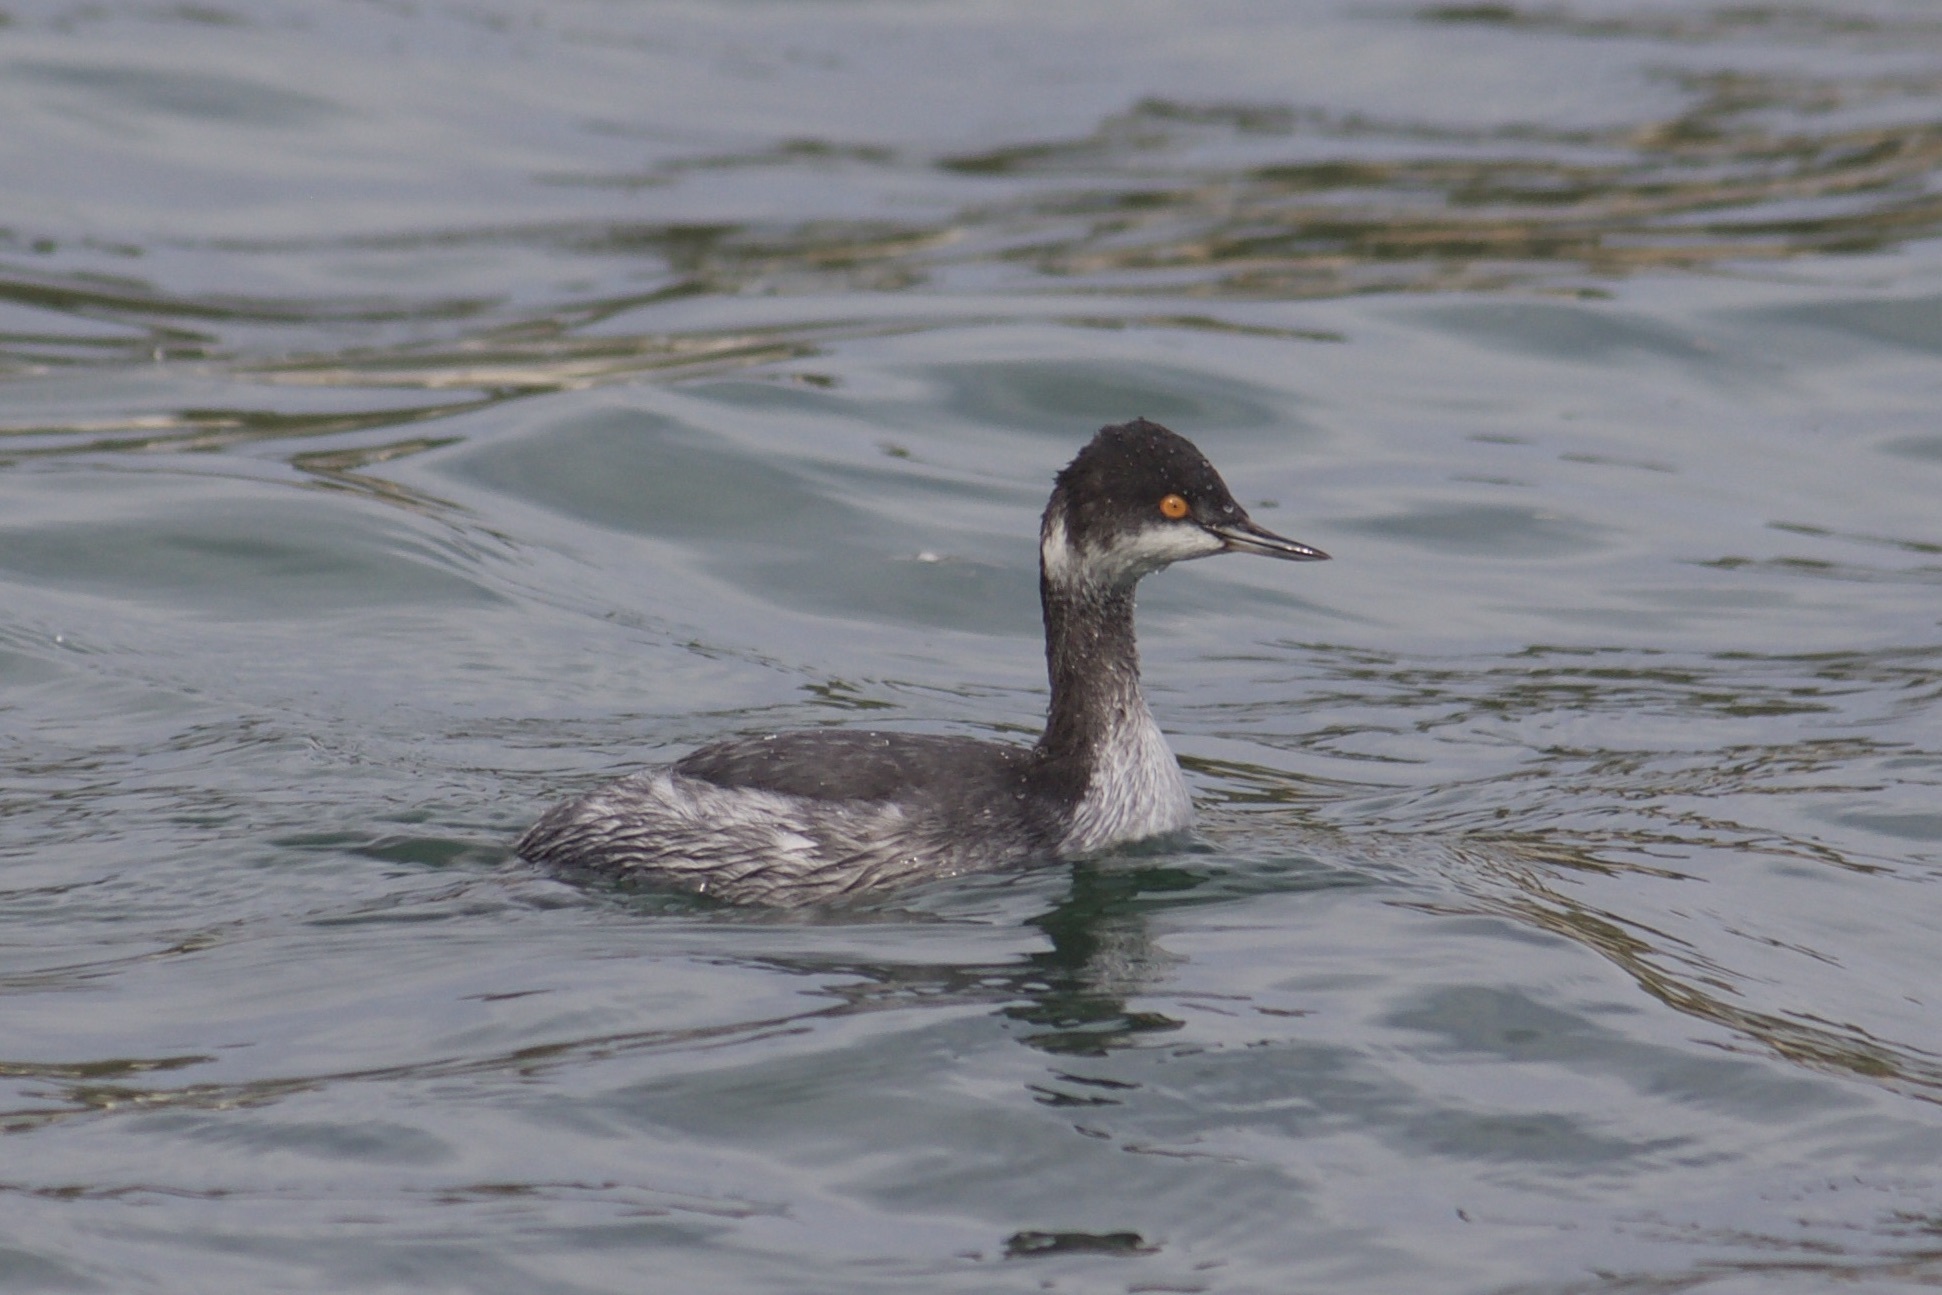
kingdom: Animalia
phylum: Chordata
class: Aves
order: Podicipediformes
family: Podicipedidae
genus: Podiceps
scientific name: Podiceps nigricollis
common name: Black-necked grebe
